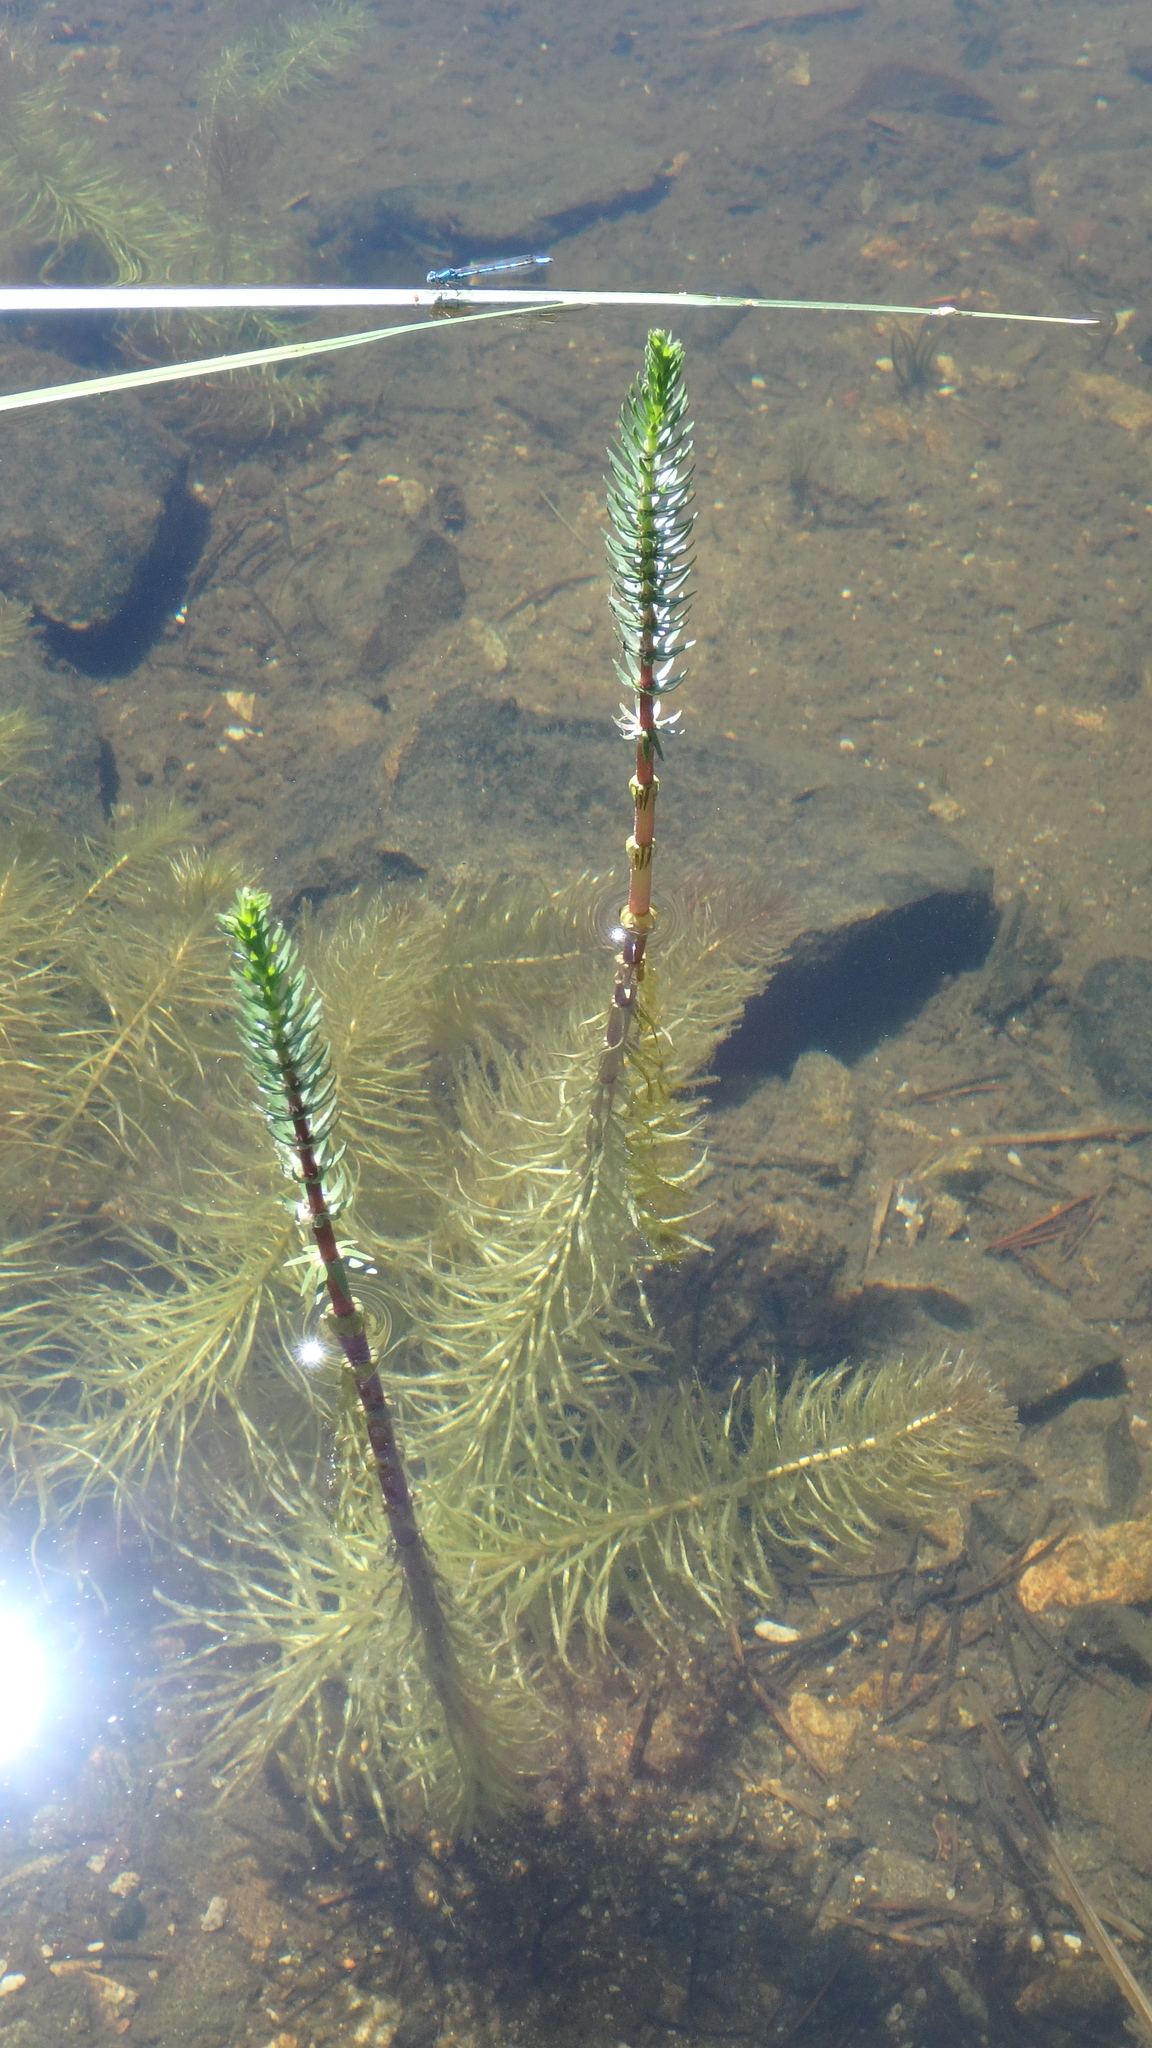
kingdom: Plantae
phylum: Tracheophyta
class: Magnoliopsida
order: Lamiales
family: Plantaginaceae
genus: Hippuris
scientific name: Hippuris vulgaris
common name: Mare's-tail
